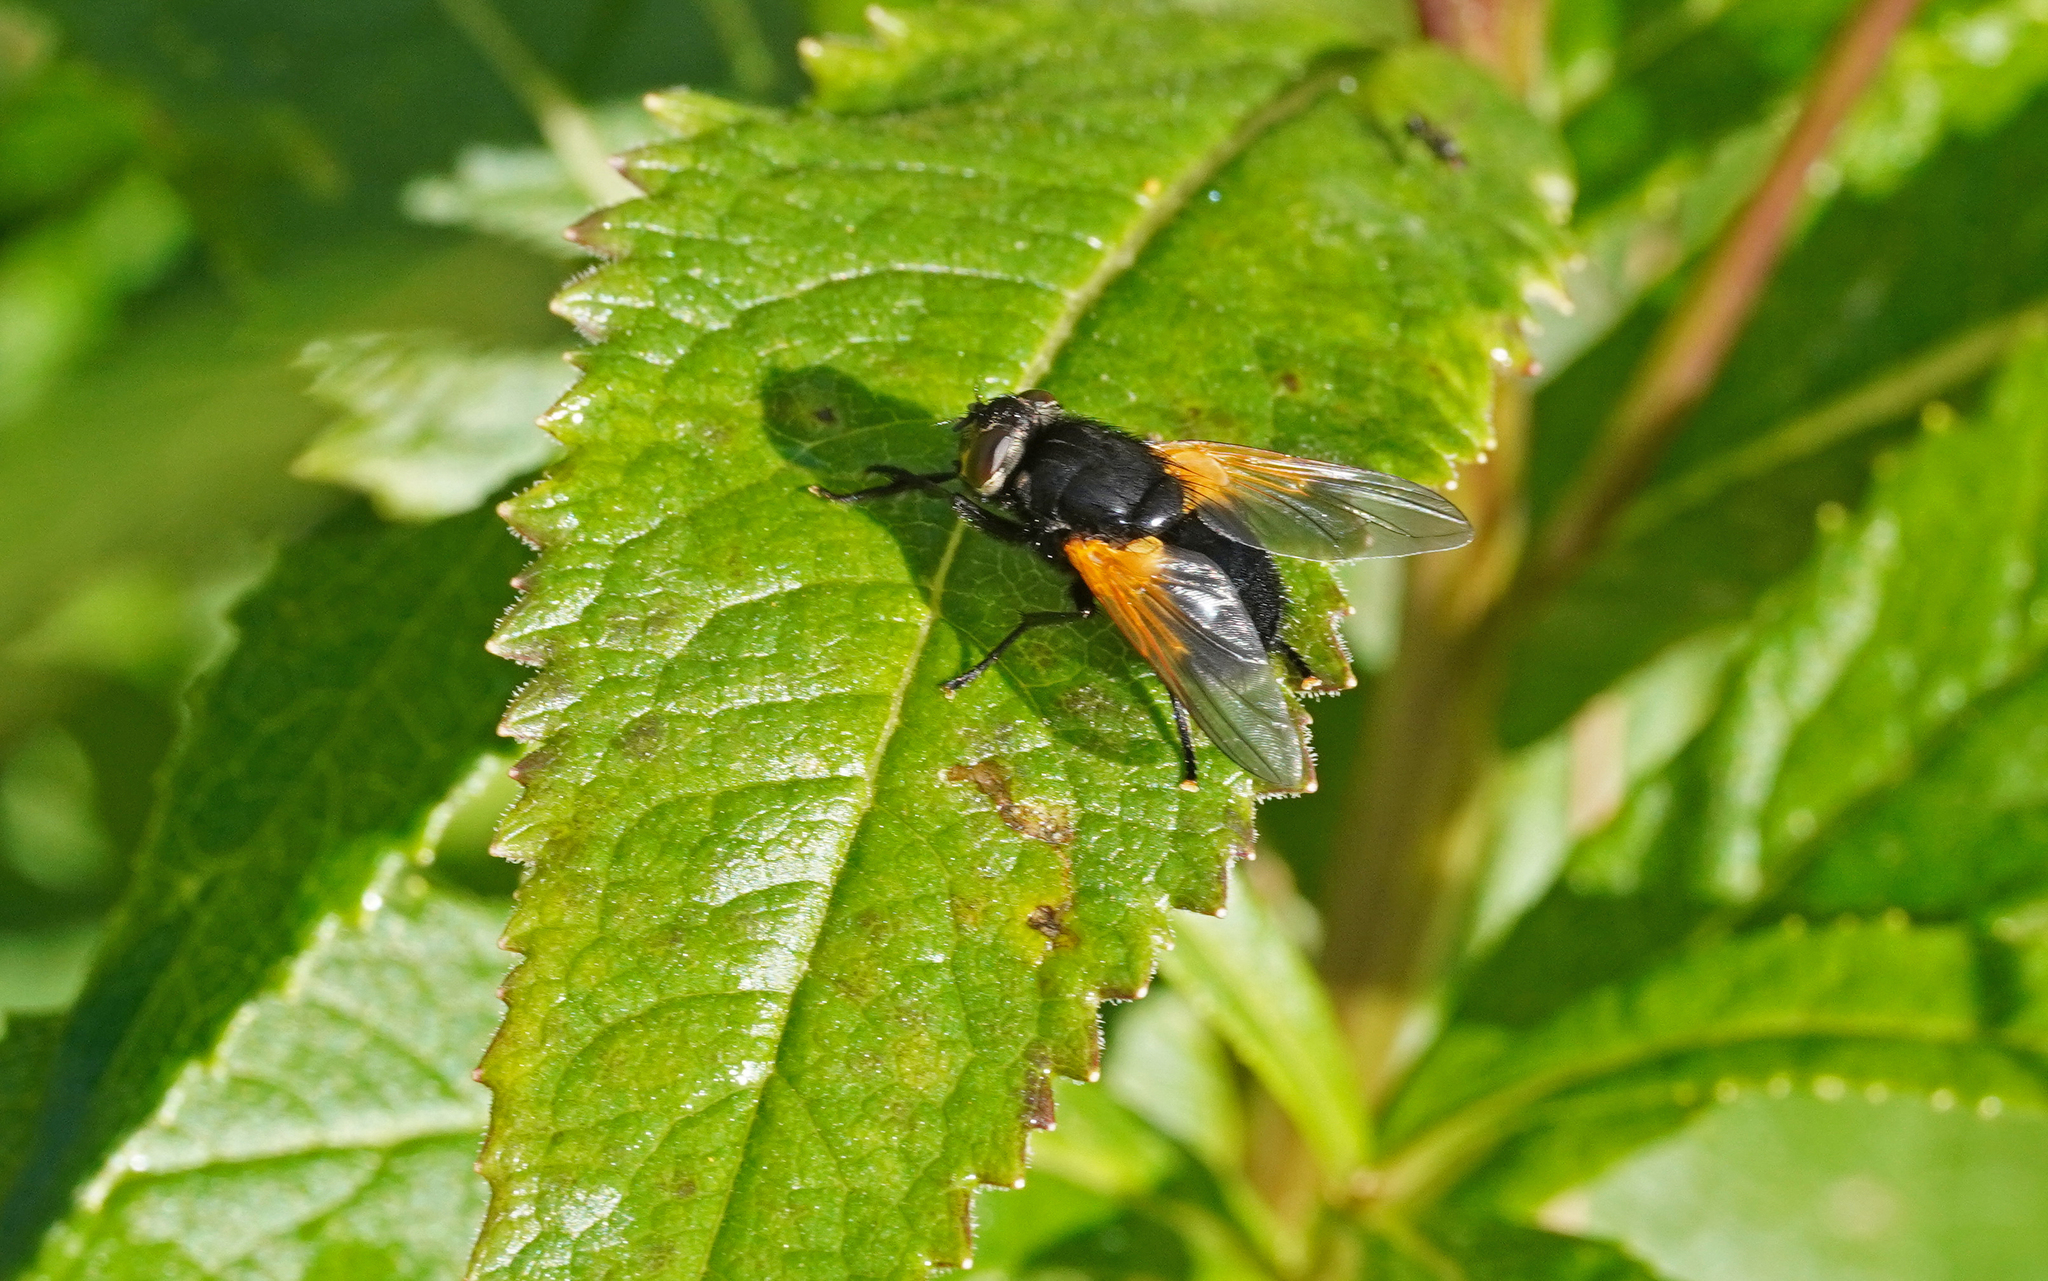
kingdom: Animalia
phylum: Arthropoda
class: Insecta
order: Diptera
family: Muscidae
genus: Mesembrina
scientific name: Mesembrina meridiana
